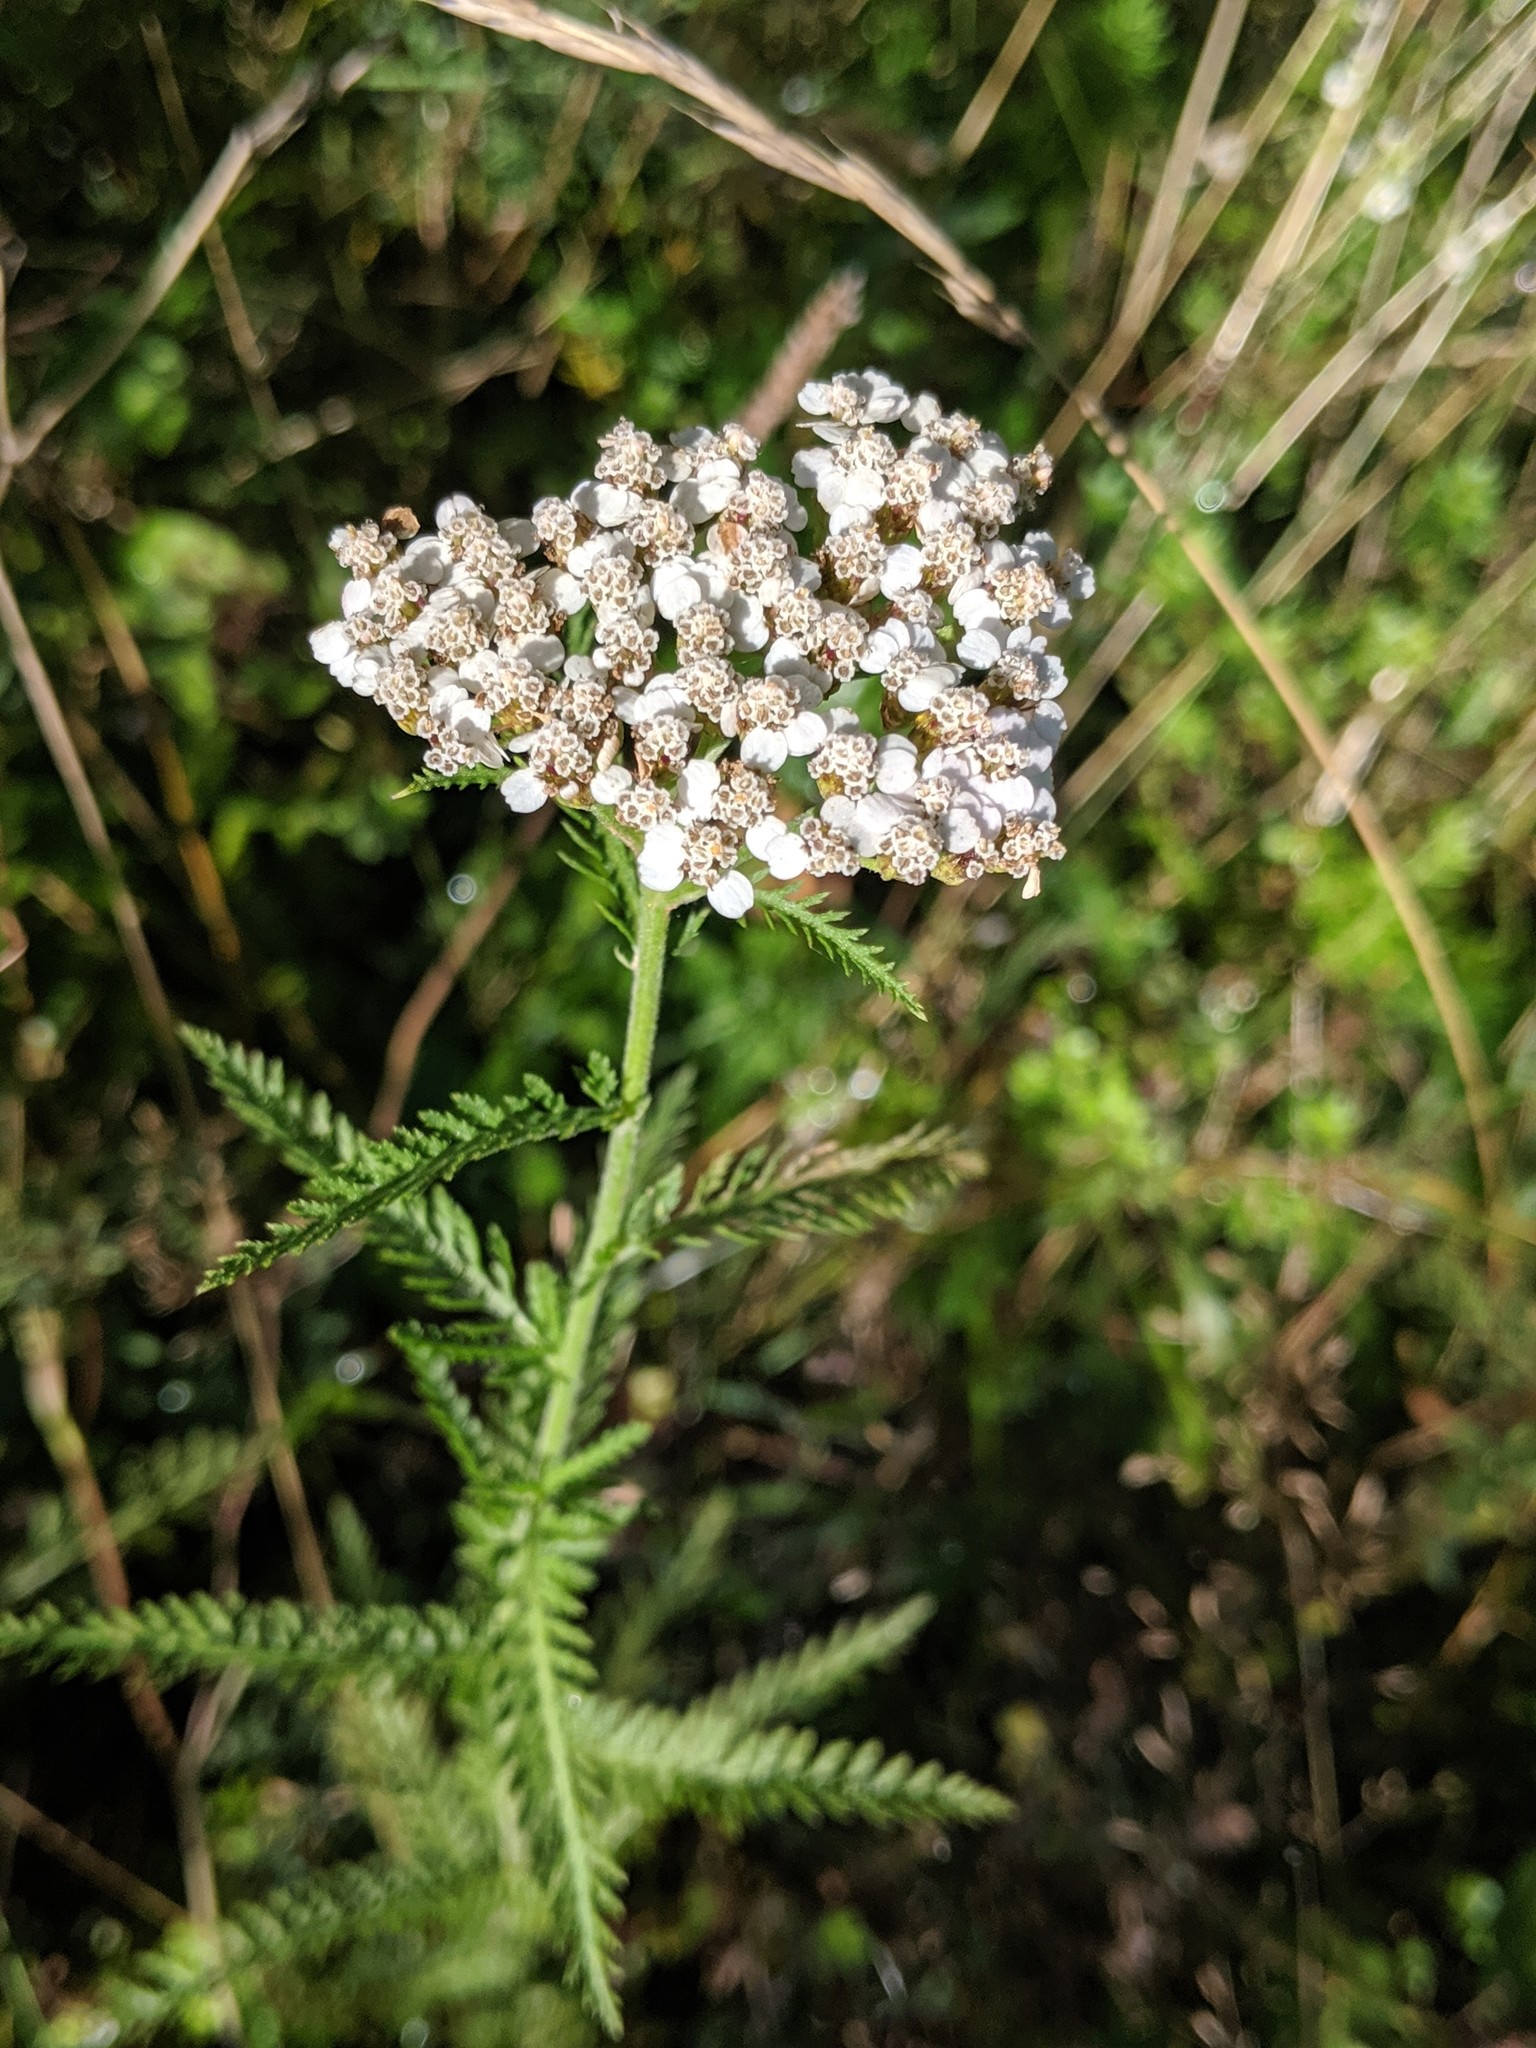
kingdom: Plantae
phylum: Tracheophyta
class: Magnoliopsida
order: Asterales
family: Asteraceae
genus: Achillea
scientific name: Achillea millefolium
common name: Yarrow
